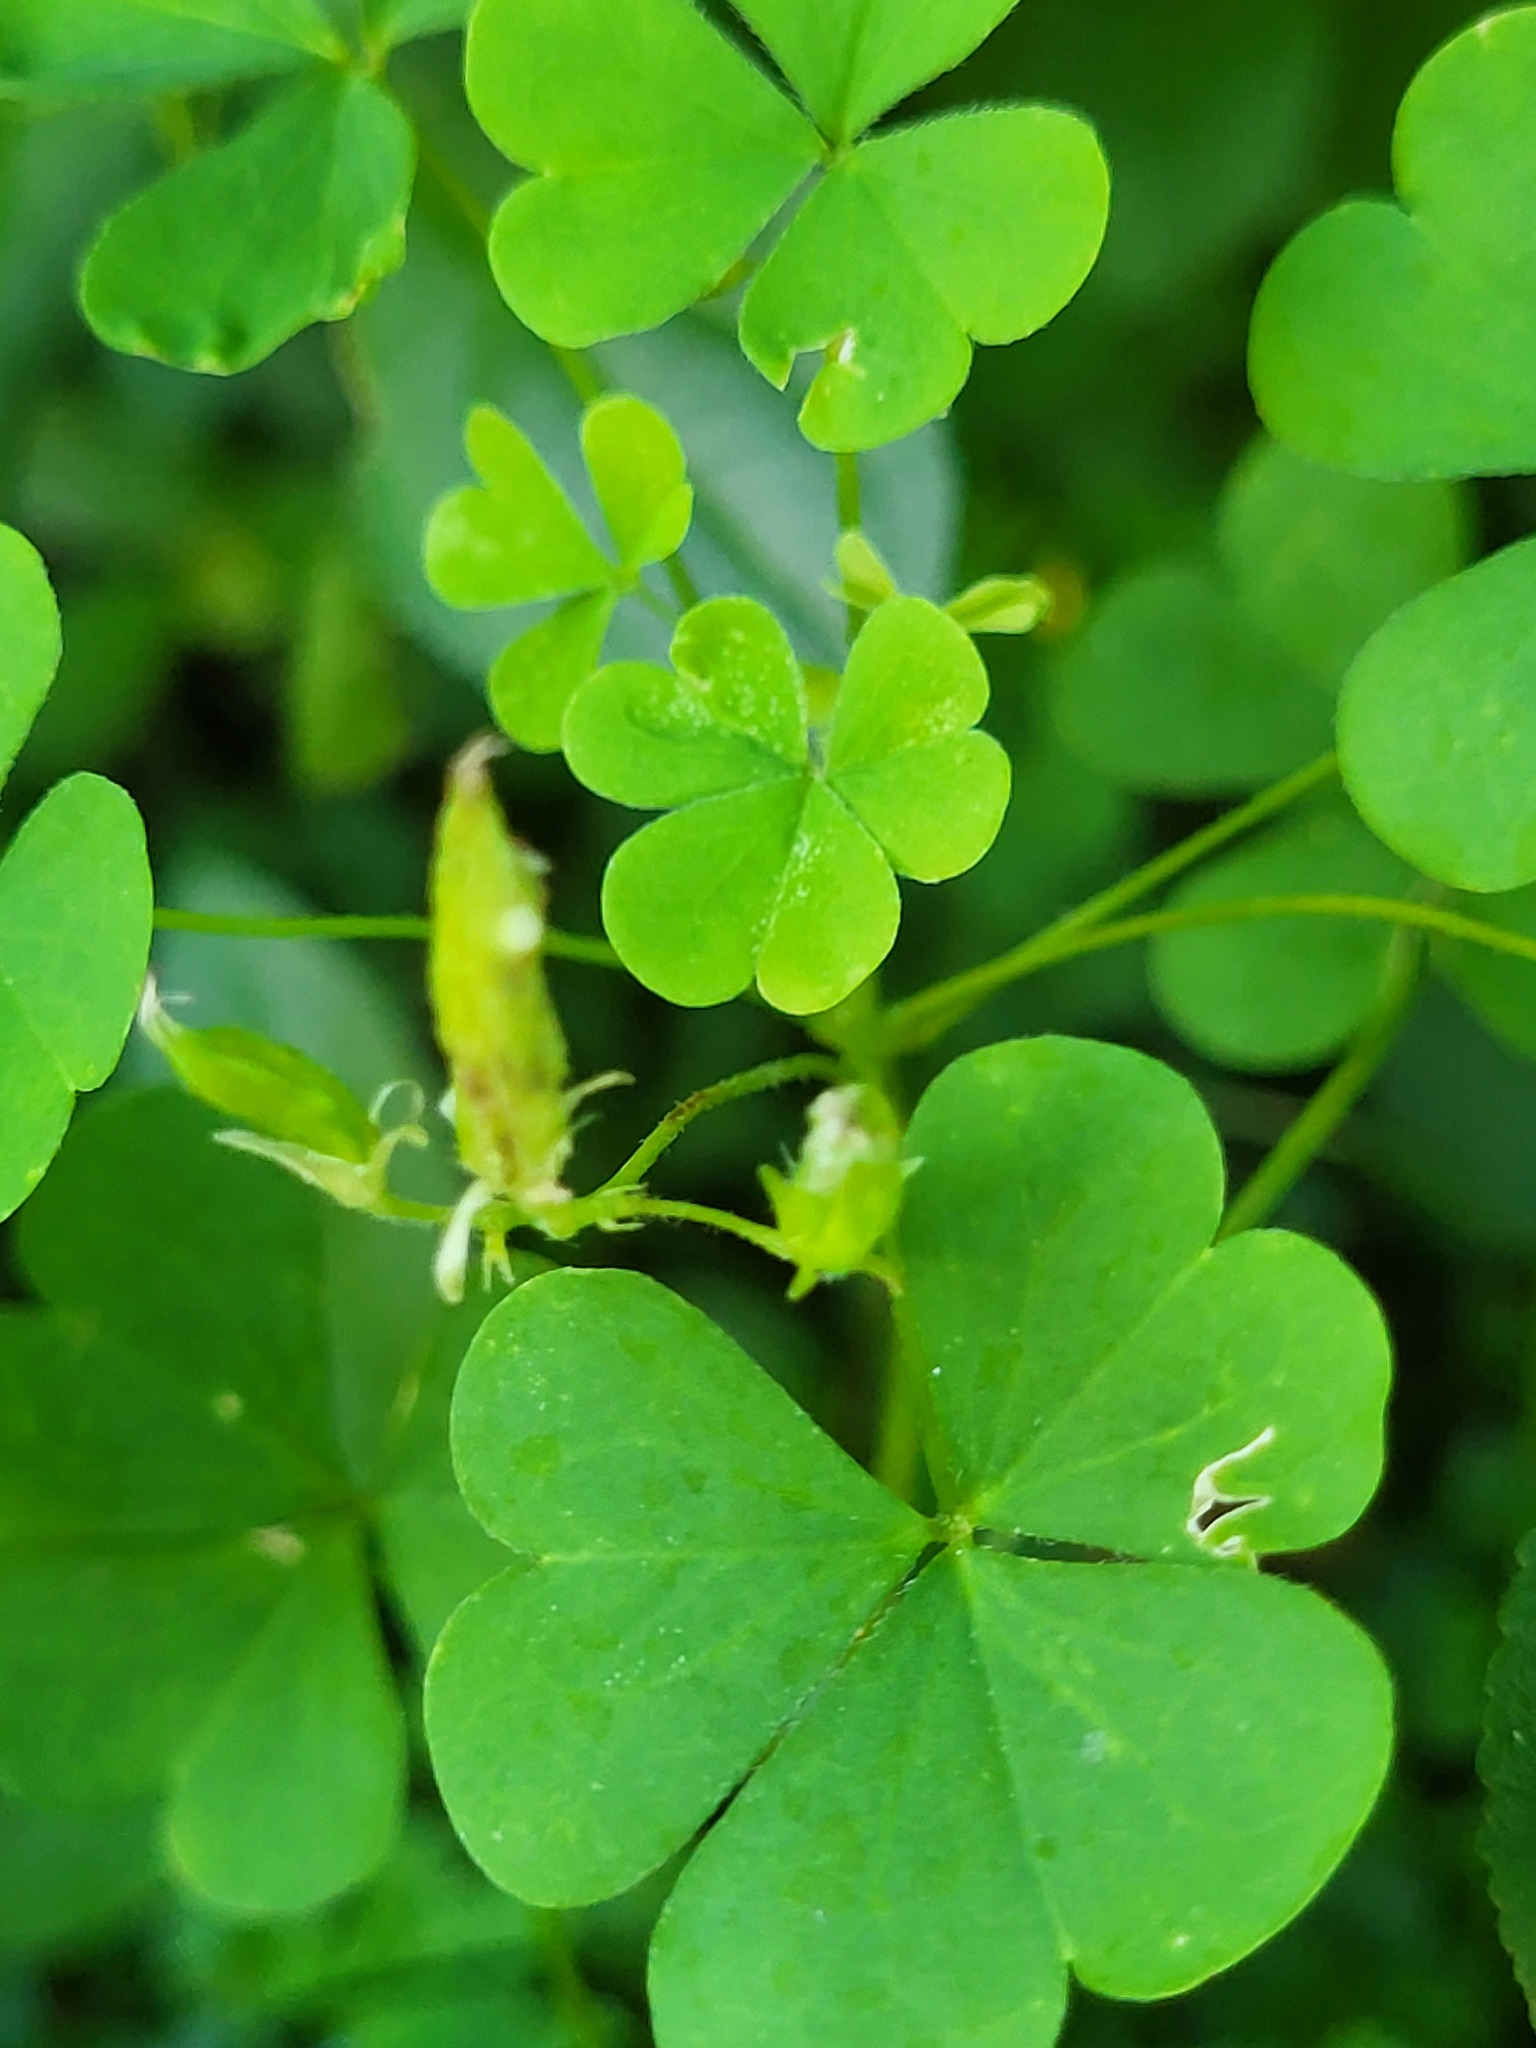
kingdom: Plantae
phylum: Tracheophyta
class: Magnoliopsida
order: Oxalidales
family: Oxalidaceae
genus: Oxalis
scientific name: Oxalis dillenii
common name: Sussex yellow-sorrel
